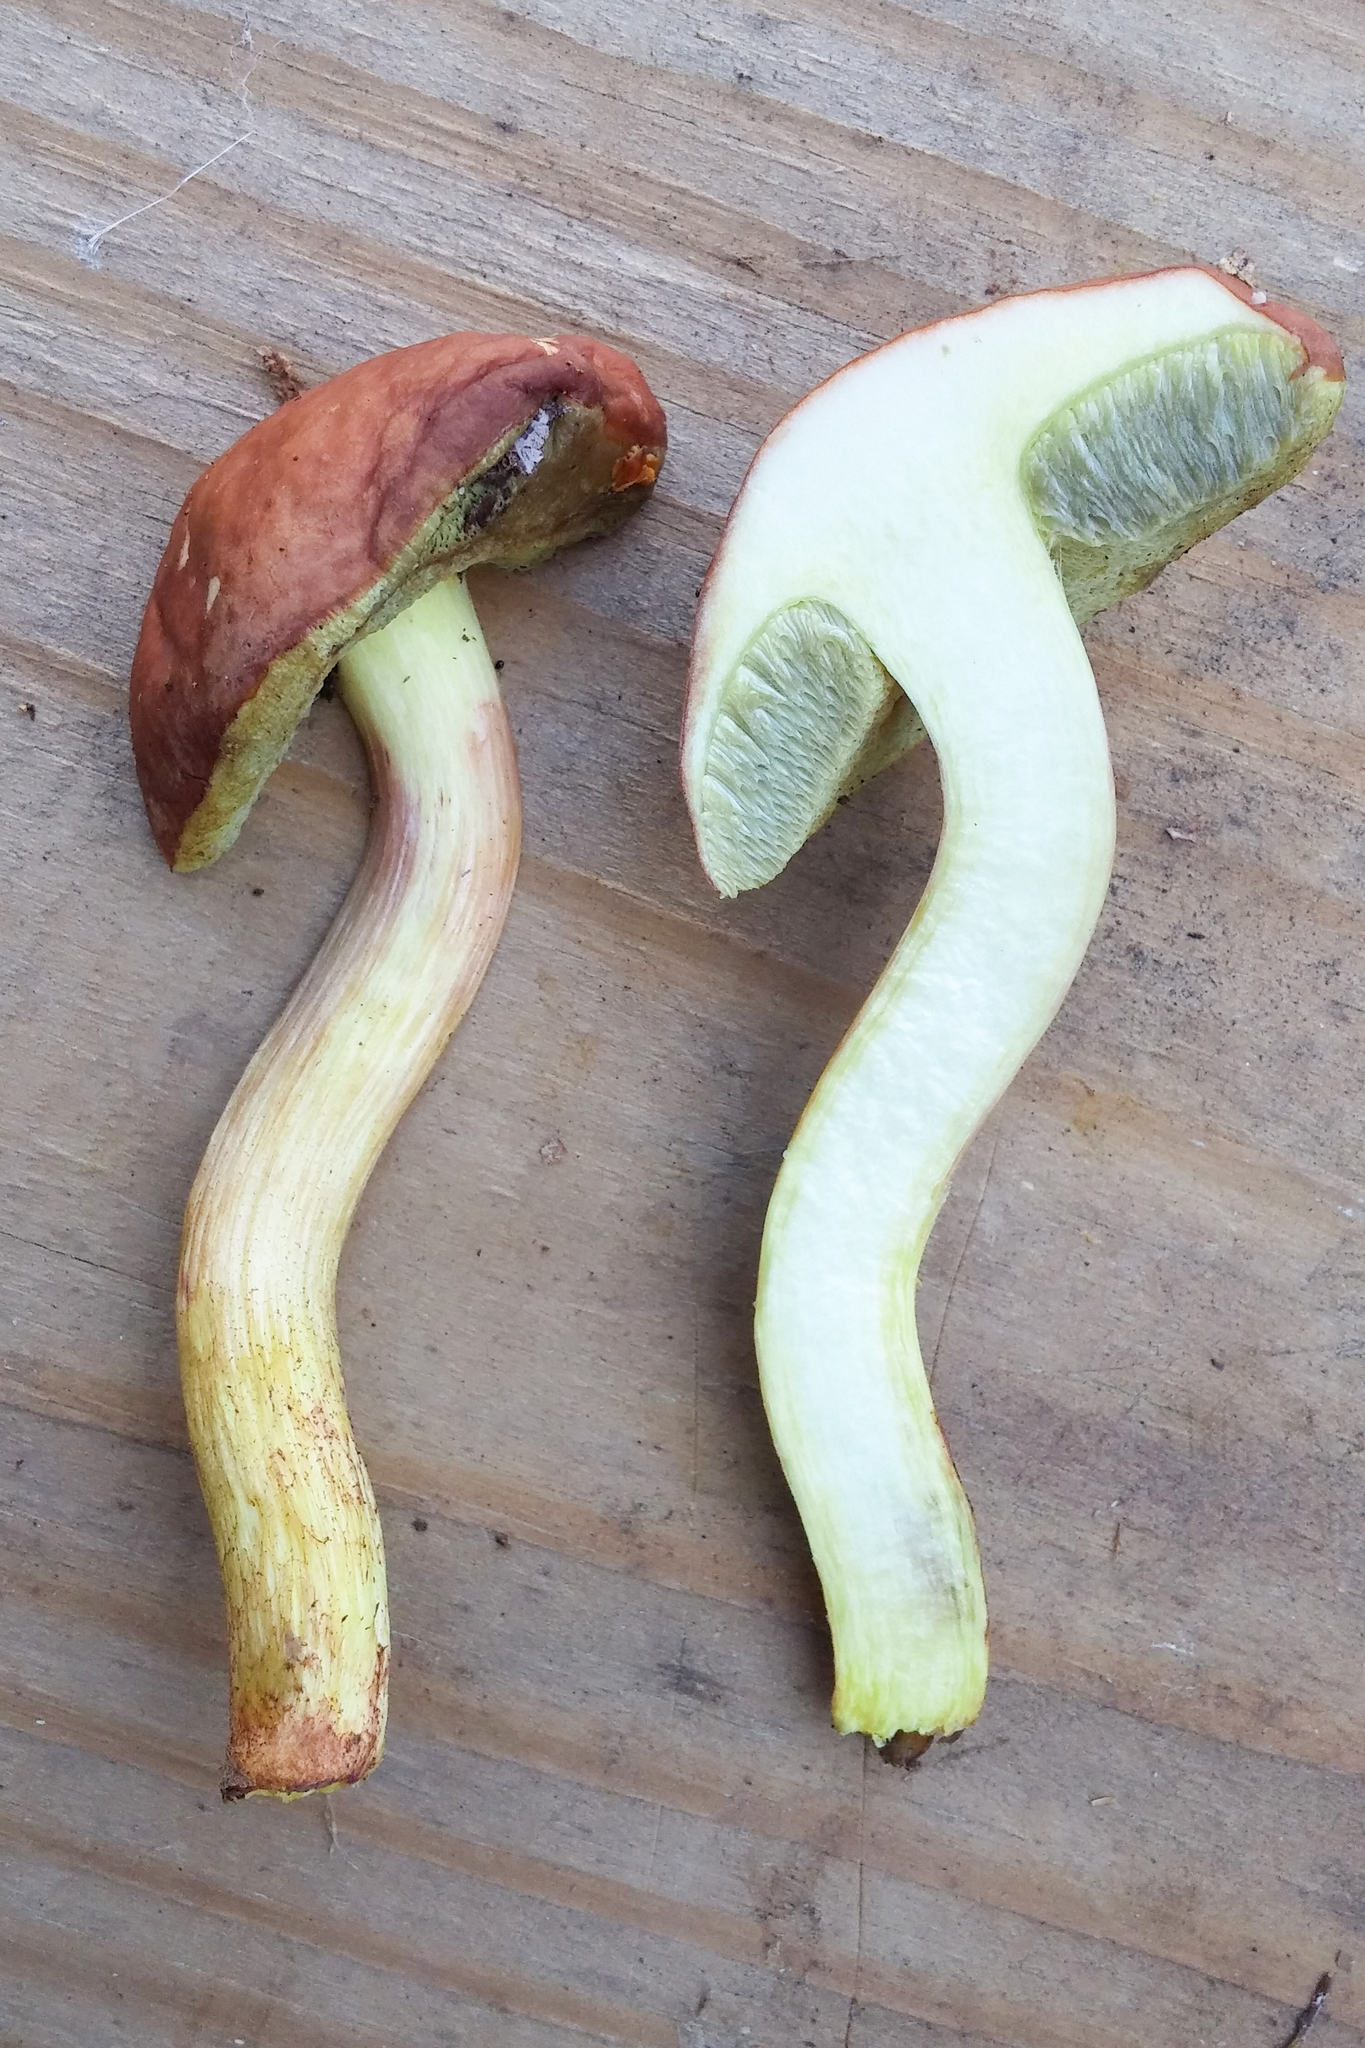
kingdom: Fungi
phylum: Basidiomycota
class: Agaricomycetes
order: Boletales
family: Boletaceae
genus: Hemileccinum
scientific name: Hemileccinum subglabripes
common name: Smoothish-stemmed bolete
